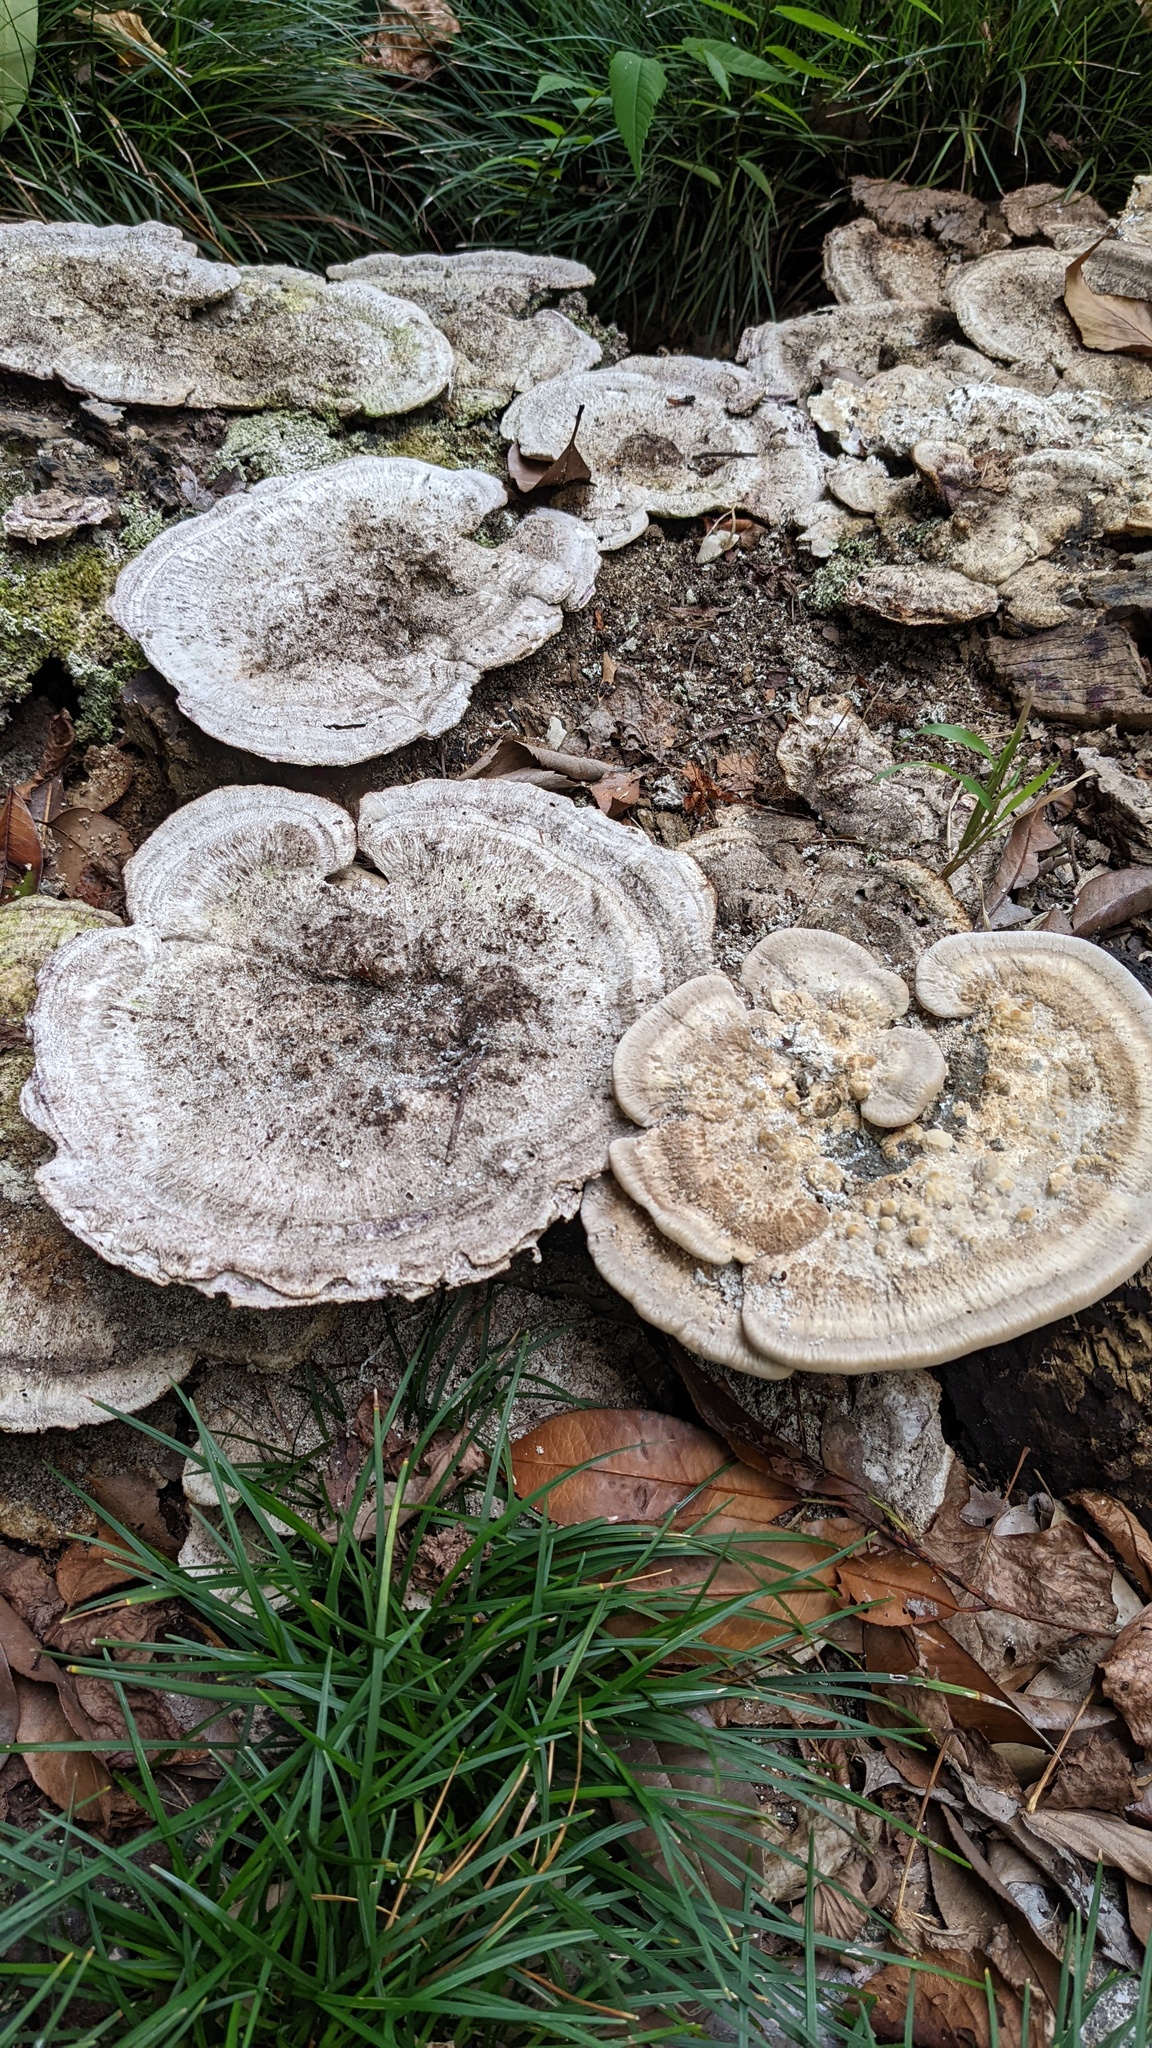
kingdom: Fungi
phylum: Basidiomycota
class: Agaricomycetes
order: Polyporales
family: Polyporaceae
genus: Trametes
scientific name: Trametes orientalis
